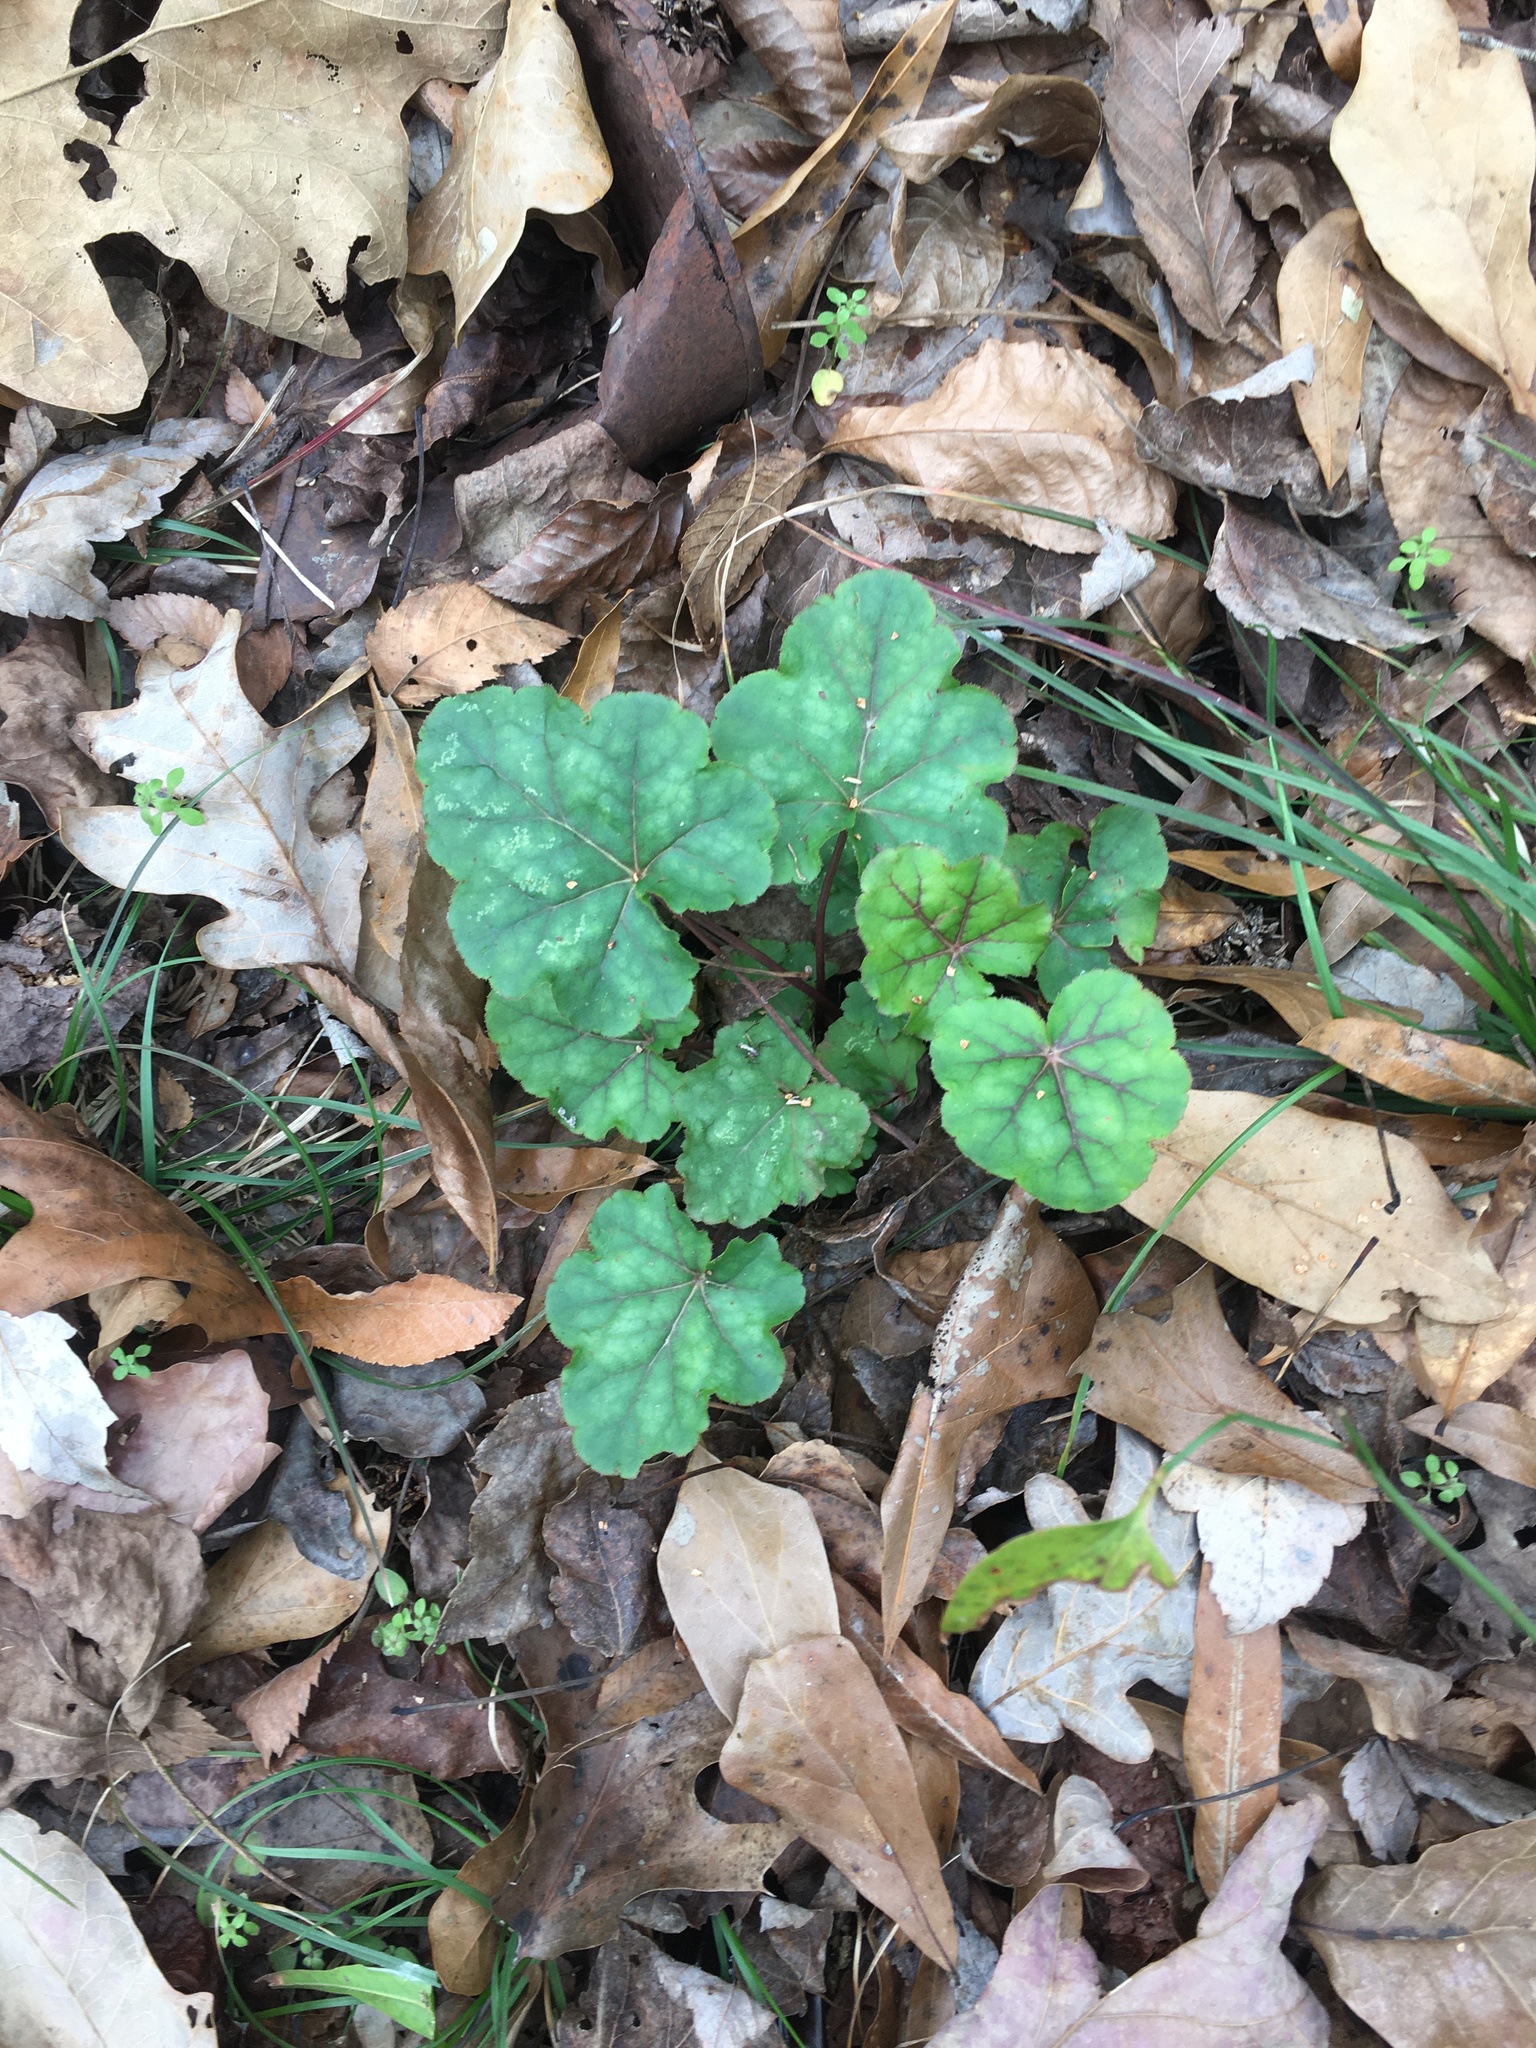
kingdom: Plantae
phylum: Tracheophyta
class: Magnoliopsida
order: Saxifragales
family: Saxifragaceae
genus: Heuchera
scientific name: Heuchera caroliniana
